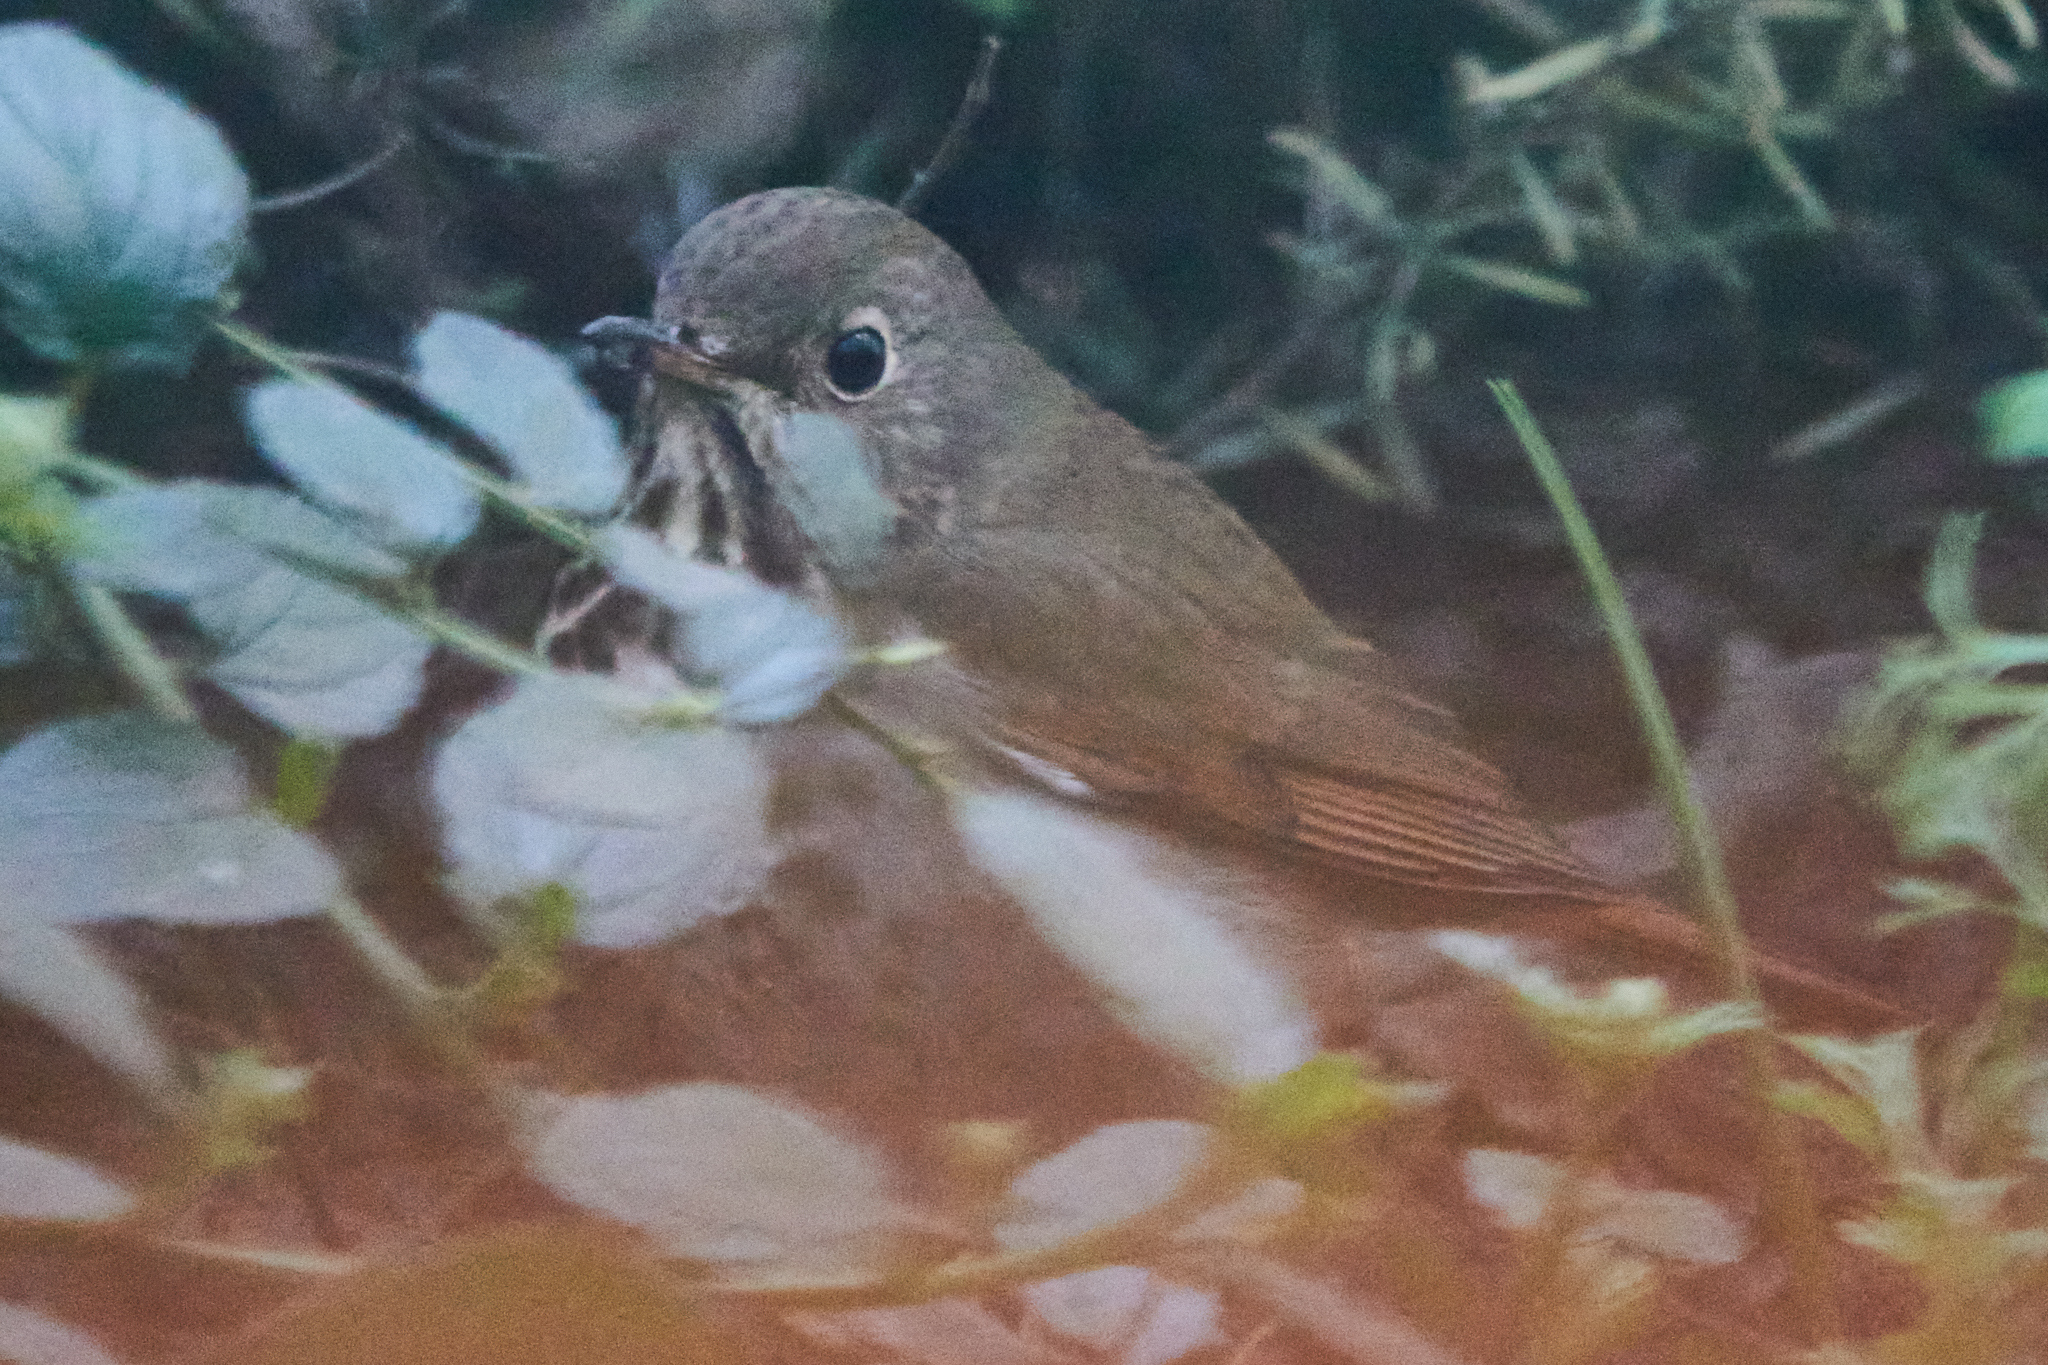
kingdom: Animalia
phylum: Chordata
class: Aves
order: Passeriformes
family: Turdidae
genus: Catharus
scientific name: Catharus guttatus
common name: Hermit thrush
